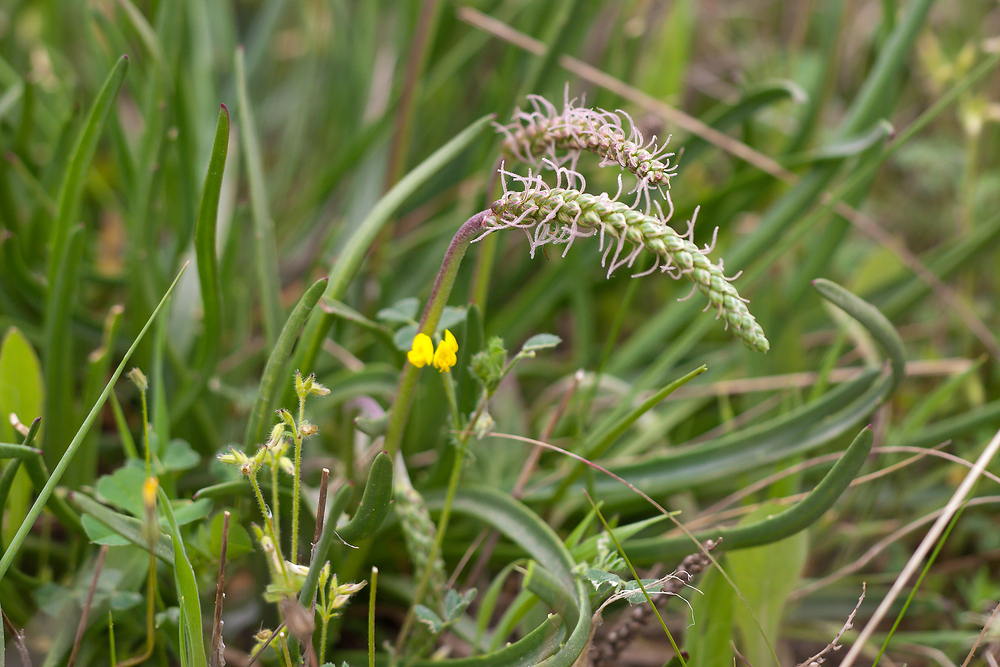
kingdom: Plantae
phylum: Tracheophyta
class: Magnoliopsida
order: Lamiales
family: Plantaginaceae
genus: Plantago
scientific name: Plantago crassifolia
